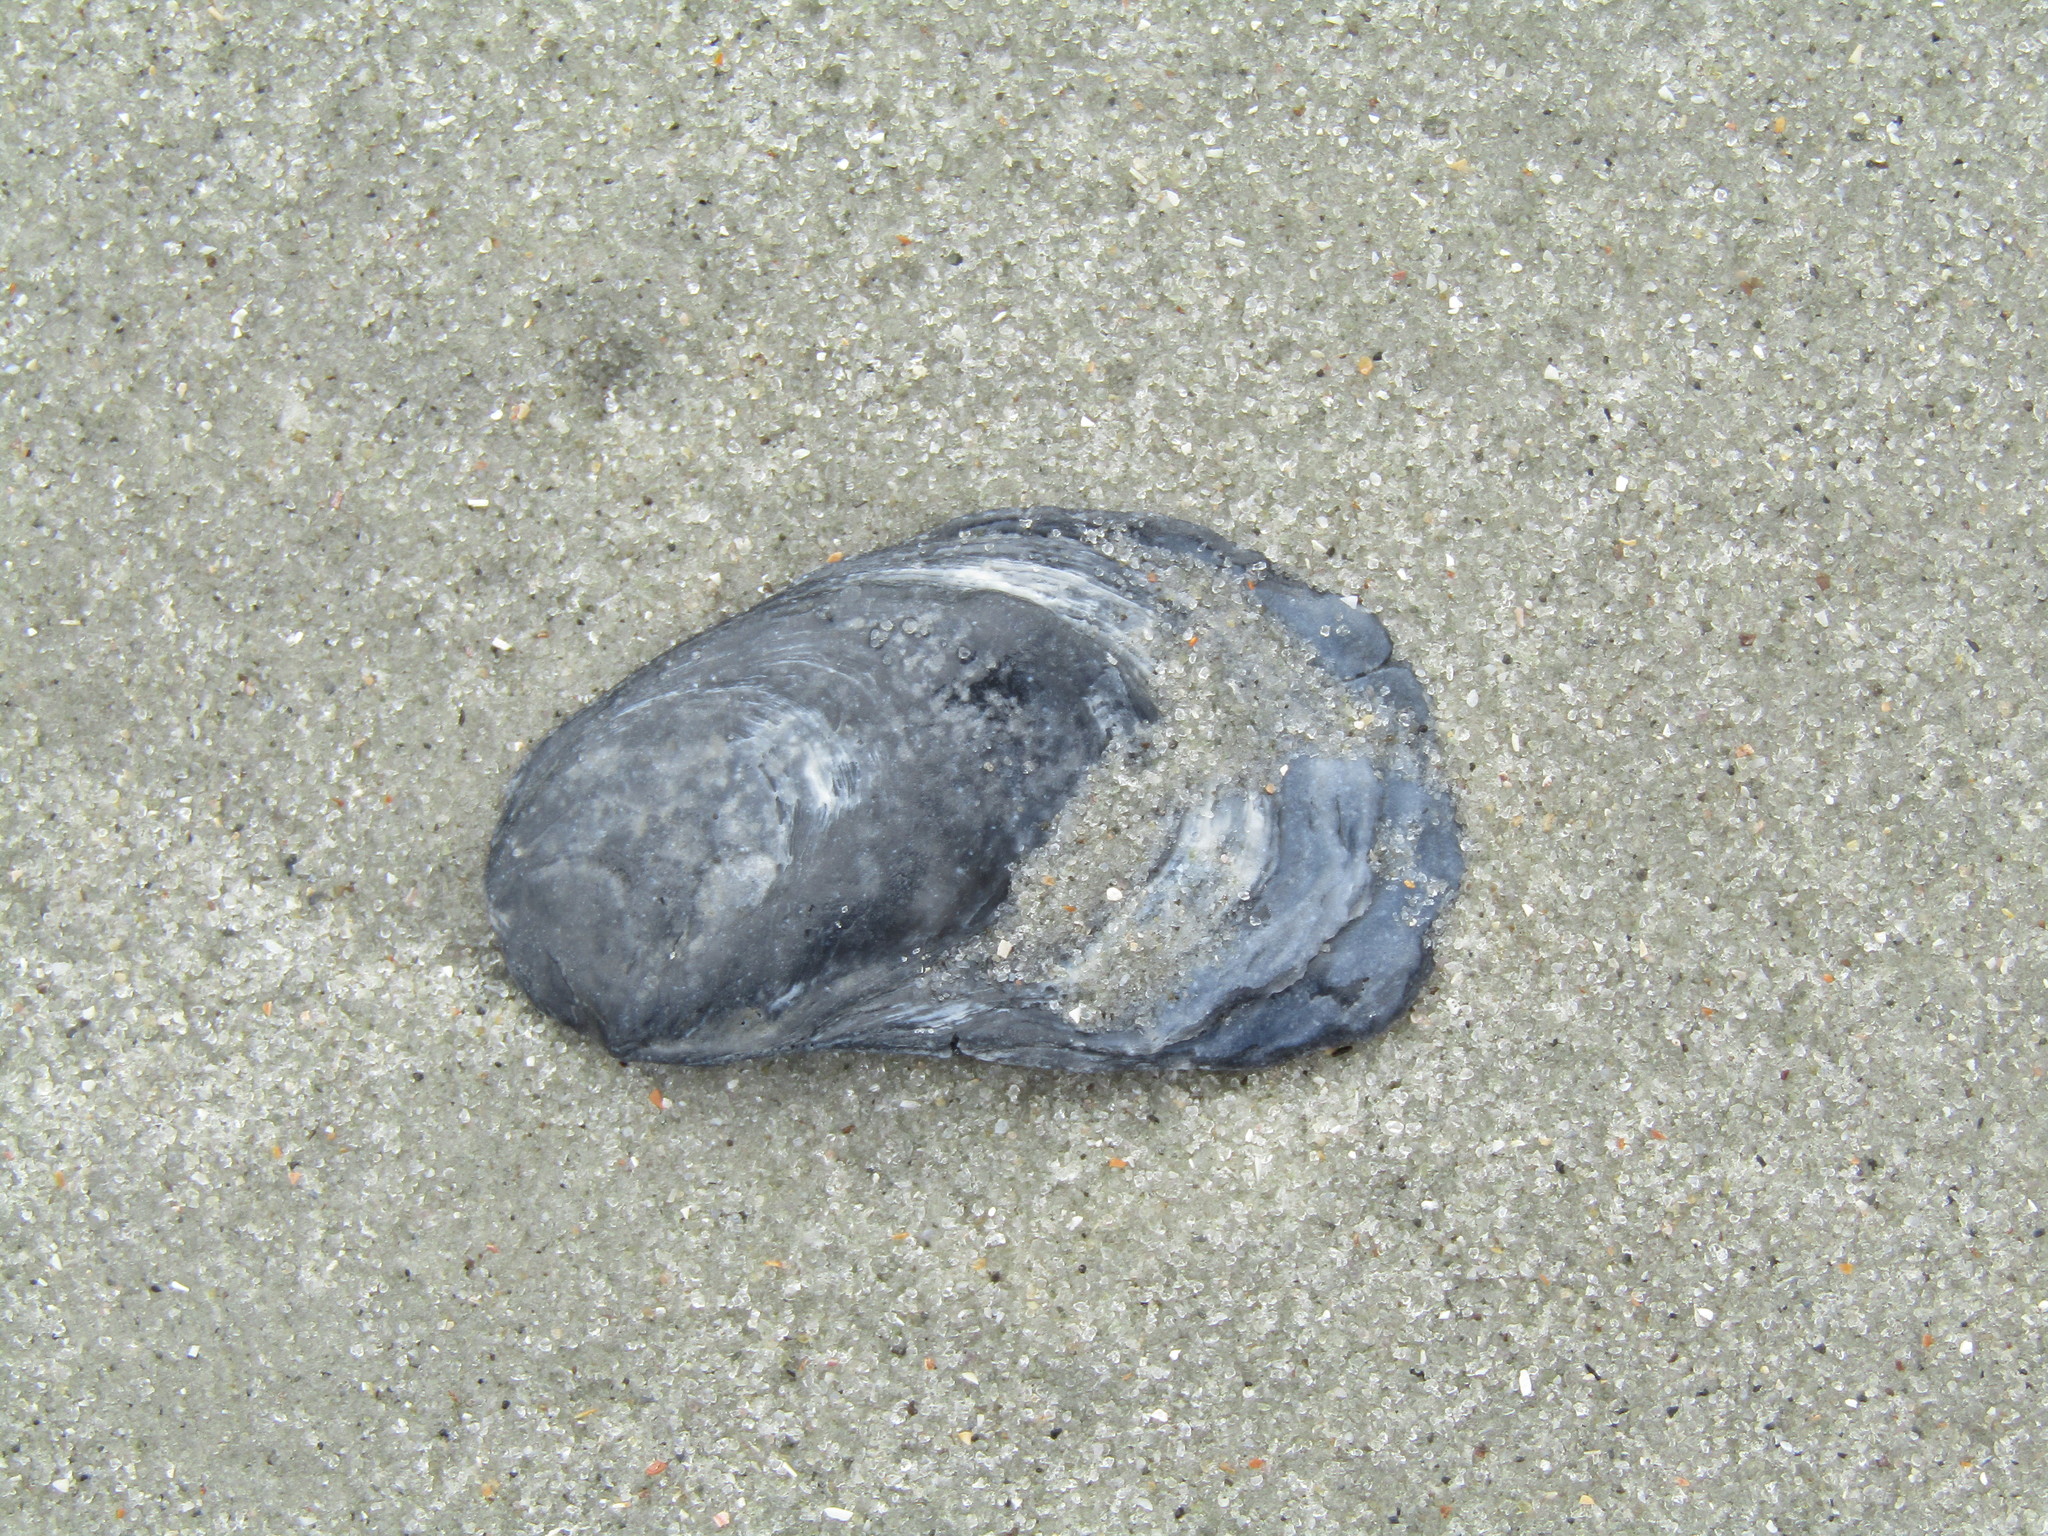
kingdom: Animalia
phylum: Mollusca
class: Bivalvia
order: Ostreida
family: Ostreidae
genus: Crassostrea
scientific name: Crassostrea virginica
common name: American oyster
